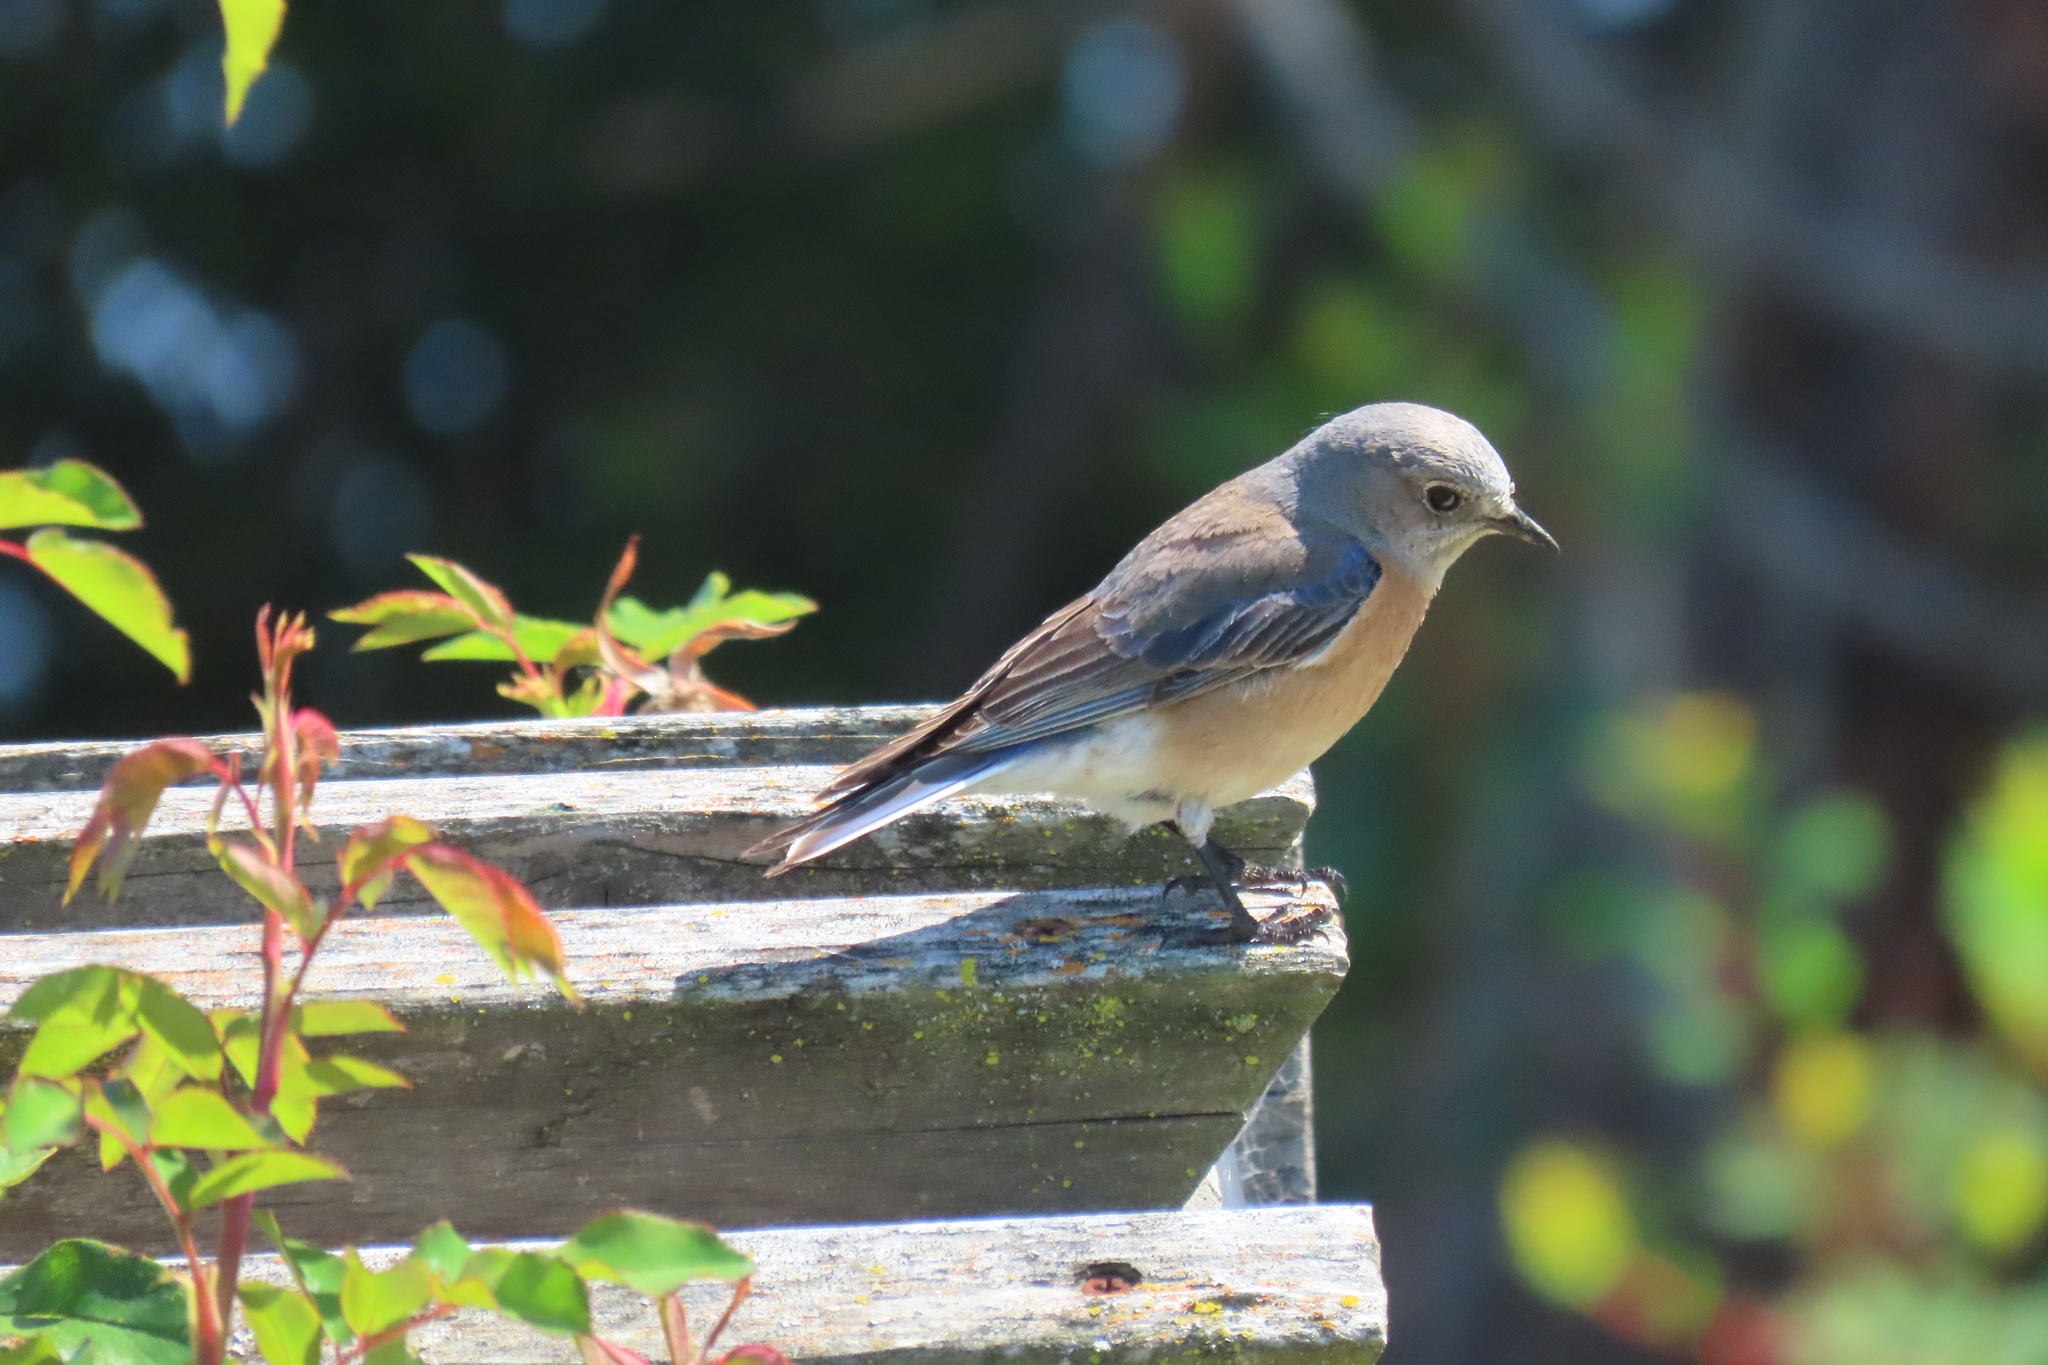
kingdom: Animalia
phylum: Chordata
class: Aves
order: Passeriformes
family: Turdidae
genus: Sialia
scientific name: Sialia mexicana
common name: Western bluebird
